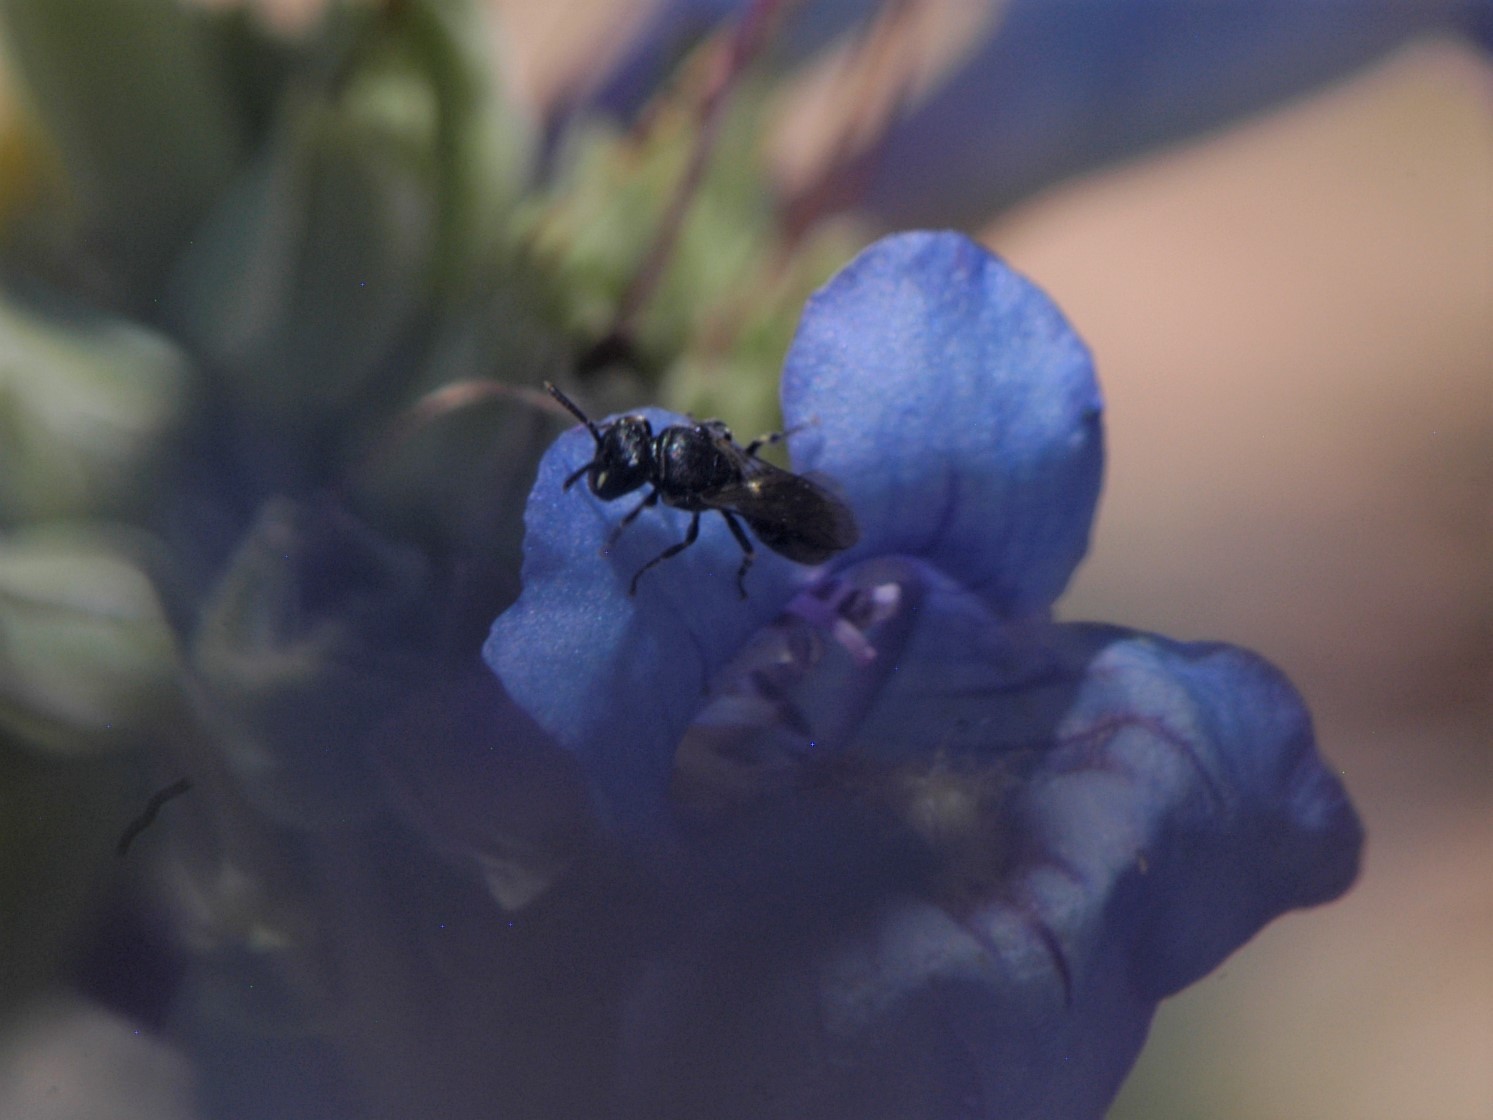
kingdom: Animalia
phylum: Arthropoda
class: Insecta
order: Hymenoptera
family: Colletidae
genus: Hylaeus
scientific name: Hylaeus
